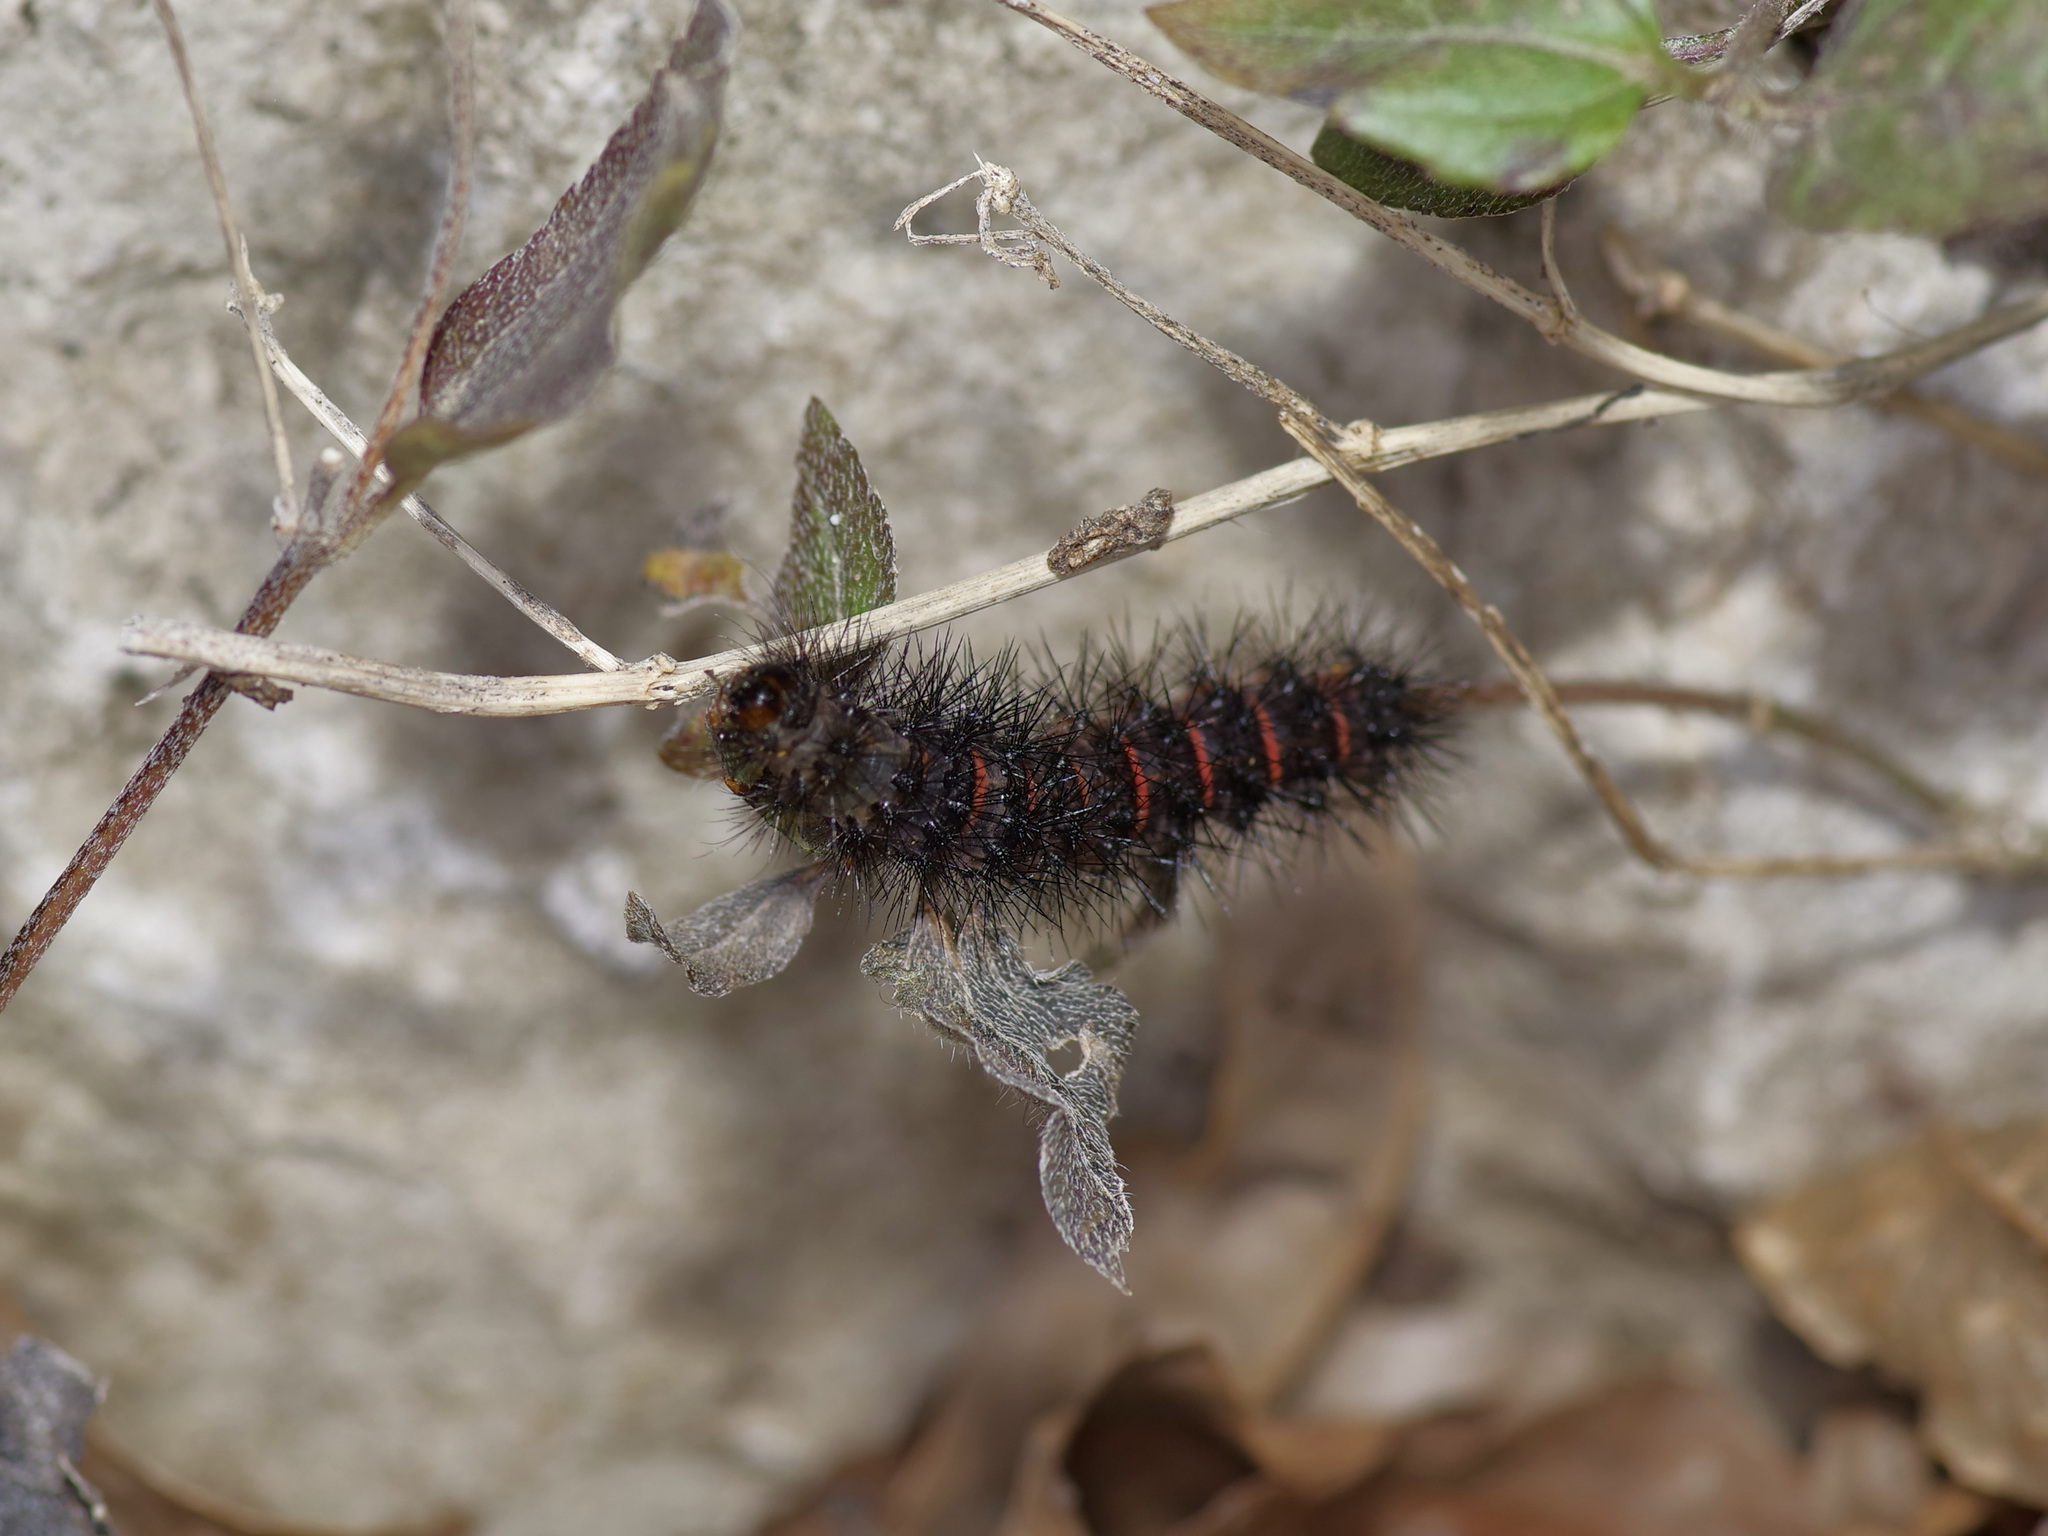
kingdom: Animalia
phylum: Arthropoda
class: Insecta
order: Lepidoptera
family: Erebidae
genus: Hypercompe
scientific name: Hypercompe scribonia
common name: Giant leopard moth
